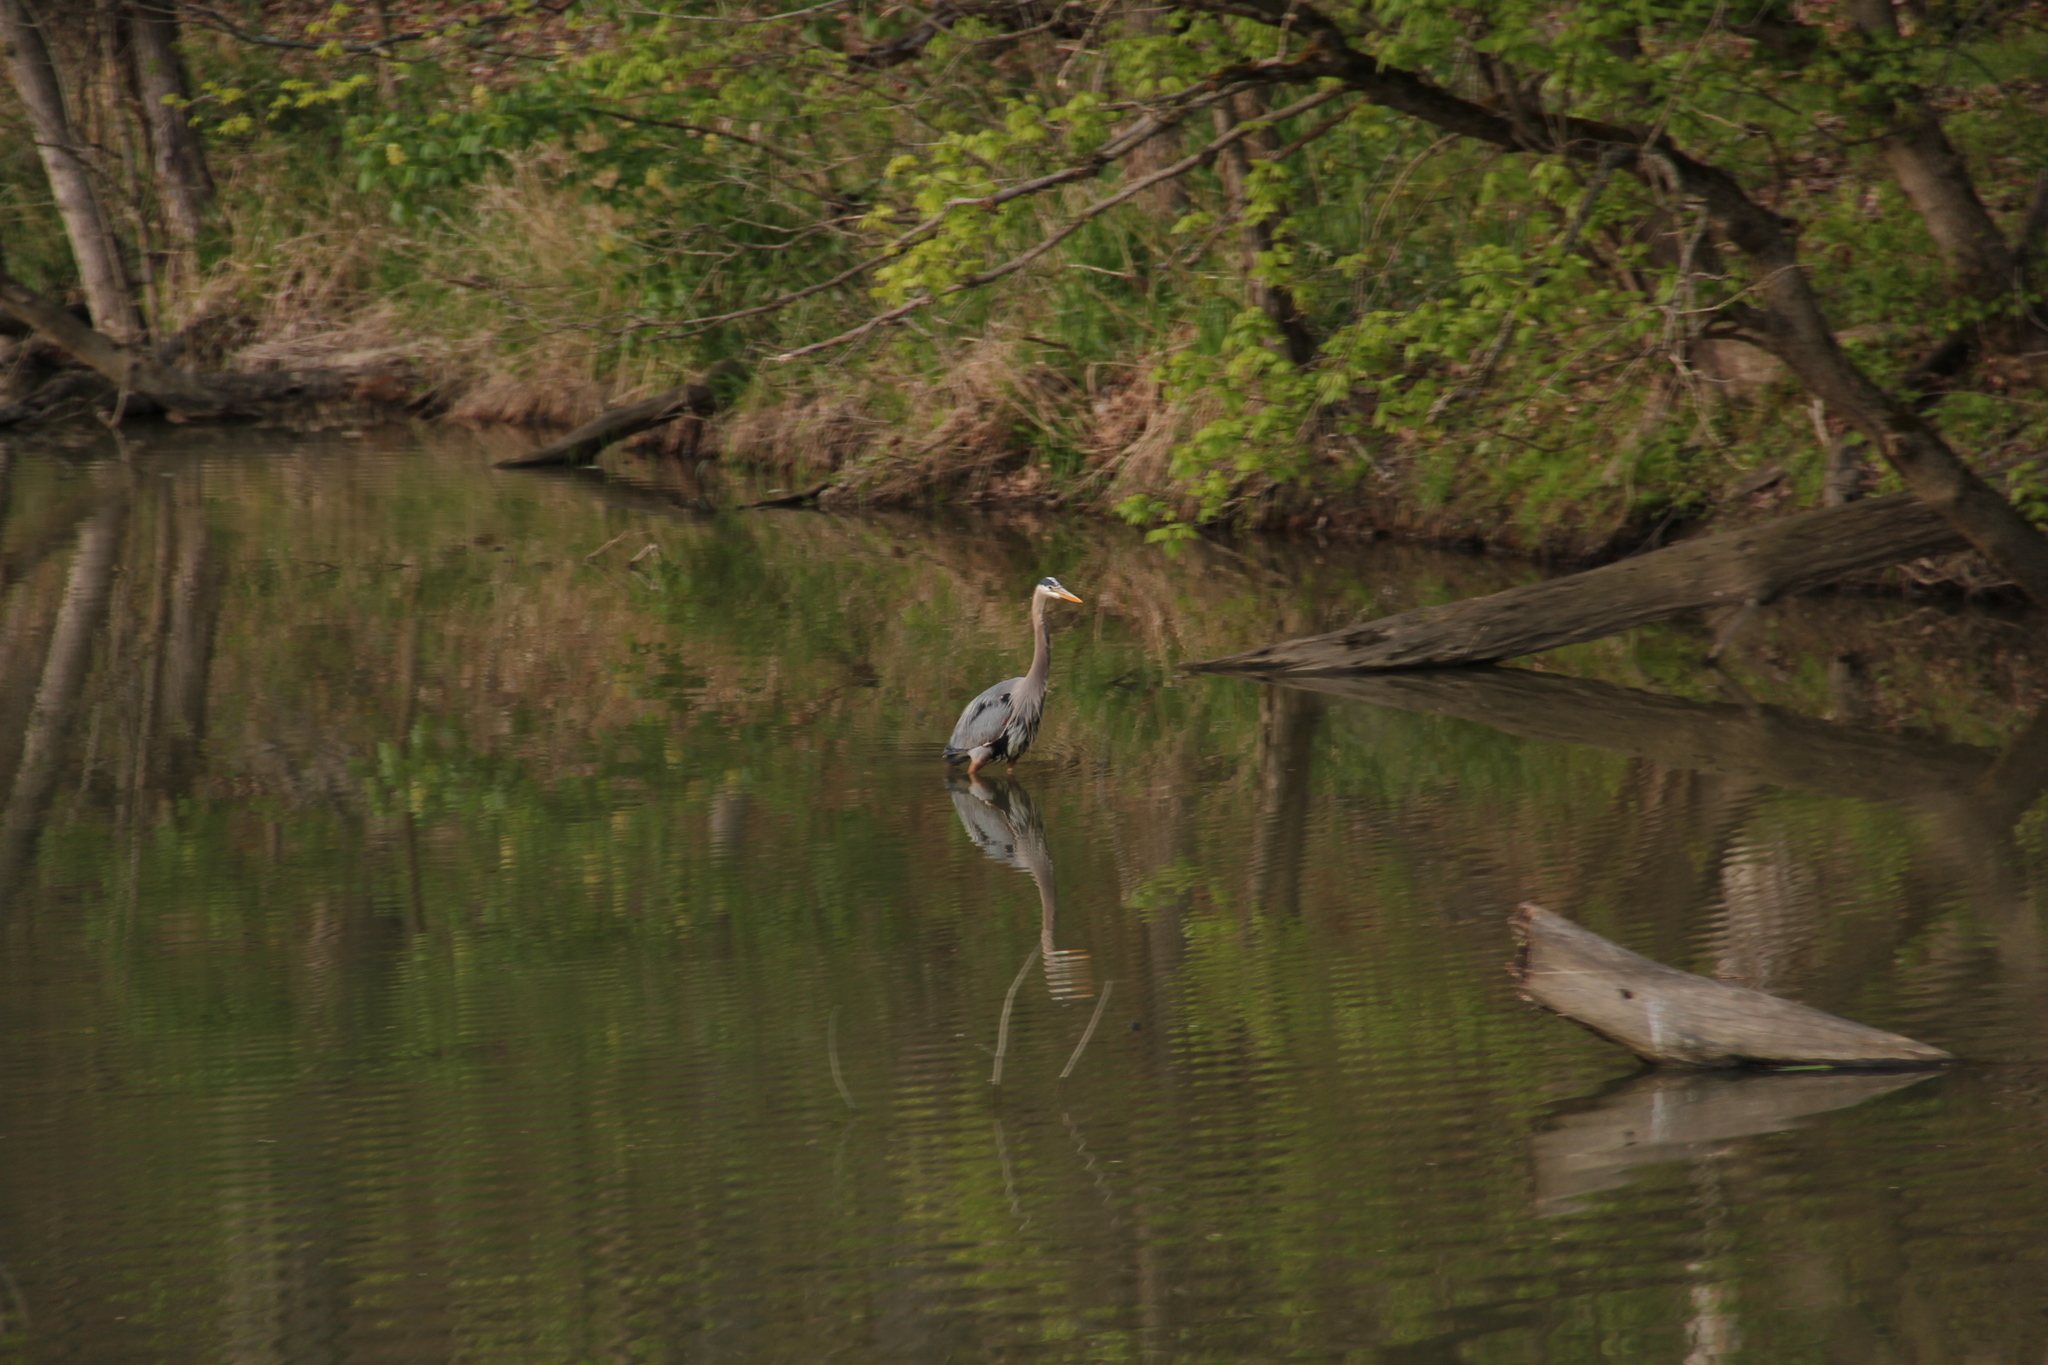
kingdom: Animalia
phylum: Chordata
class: Aves
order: Pelecaniformes
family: Ardeidae
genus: Ardea
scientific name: Ardea herodias
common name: Great blue heron
